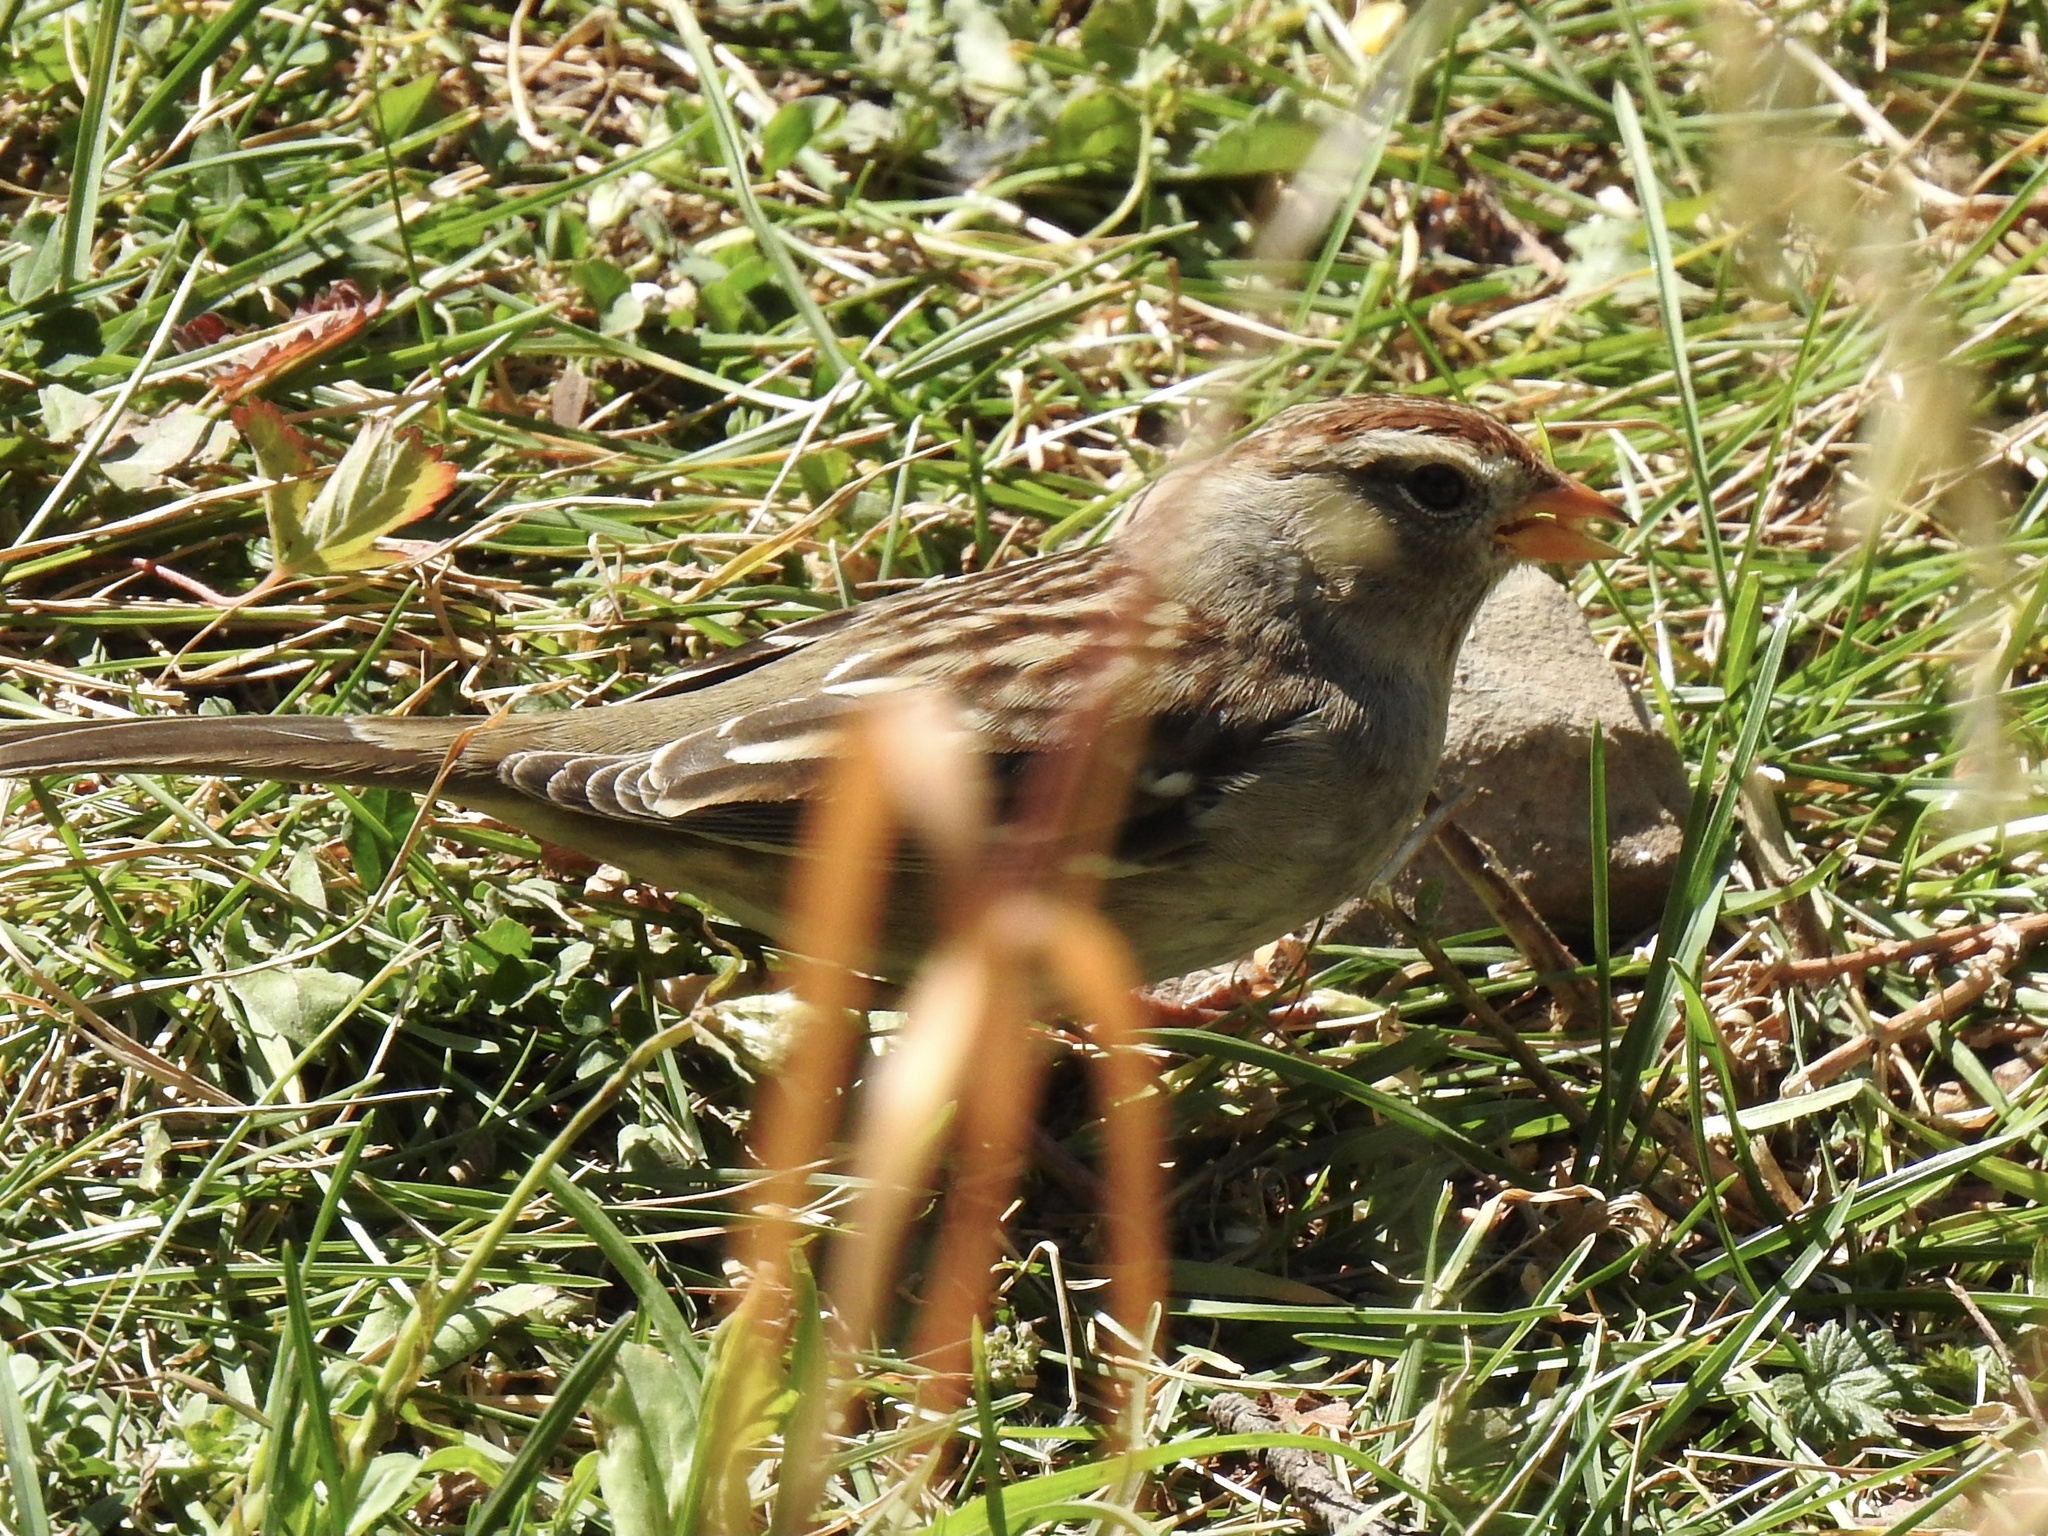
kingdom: Animalia
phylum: Chordata
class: Aves
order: Passeriformes
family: Passerellidae
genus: Zonotrichia
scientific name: Zonotrichia leucophrys
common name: White-crowned sparrow
